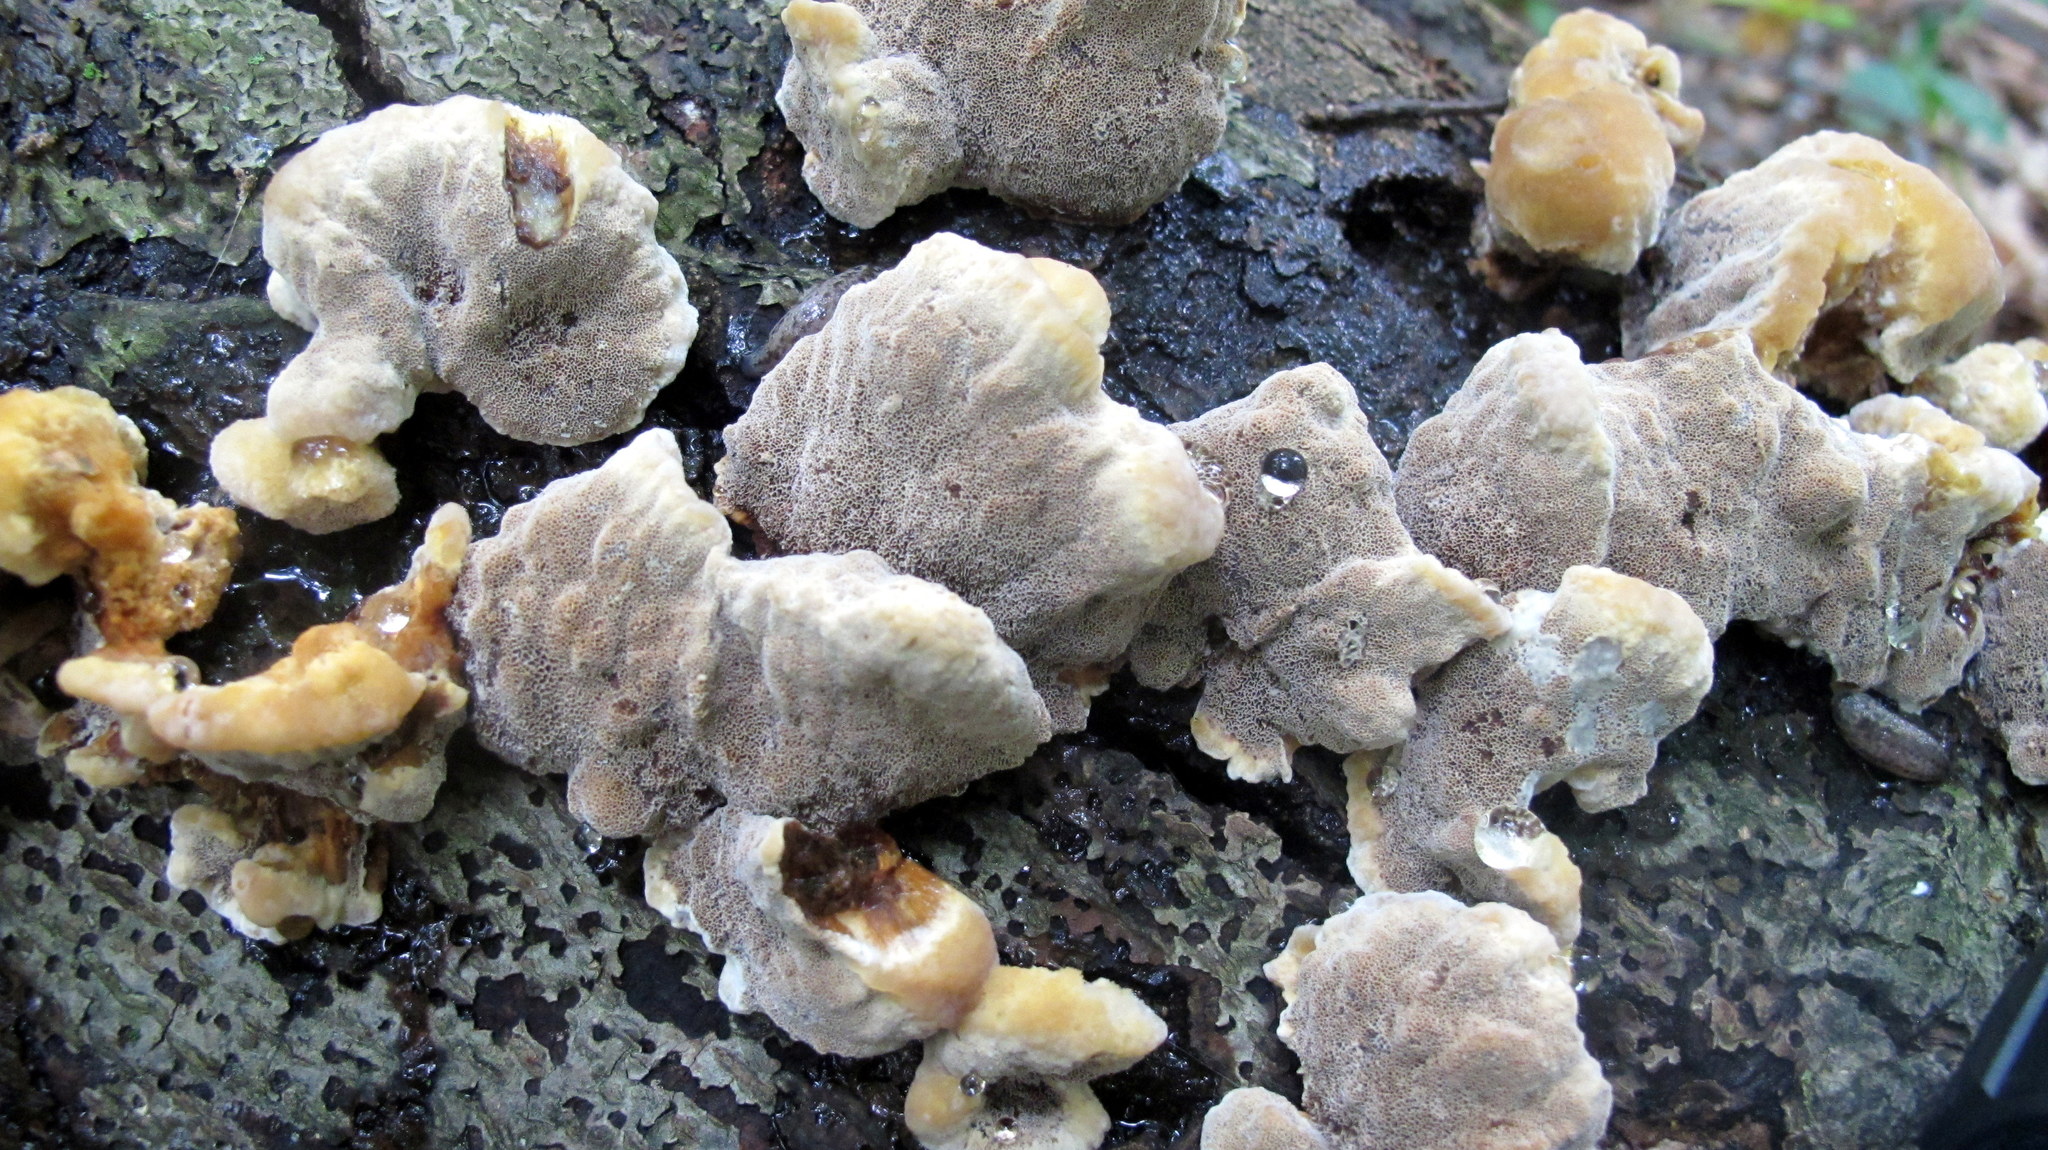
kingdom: Fungi
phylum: Basidiomycota
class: Agaricomycetes
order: Hymenochaetales
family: Hymenochaetaceae
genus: Xanthoporia
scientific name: Xanthoporia radiata
